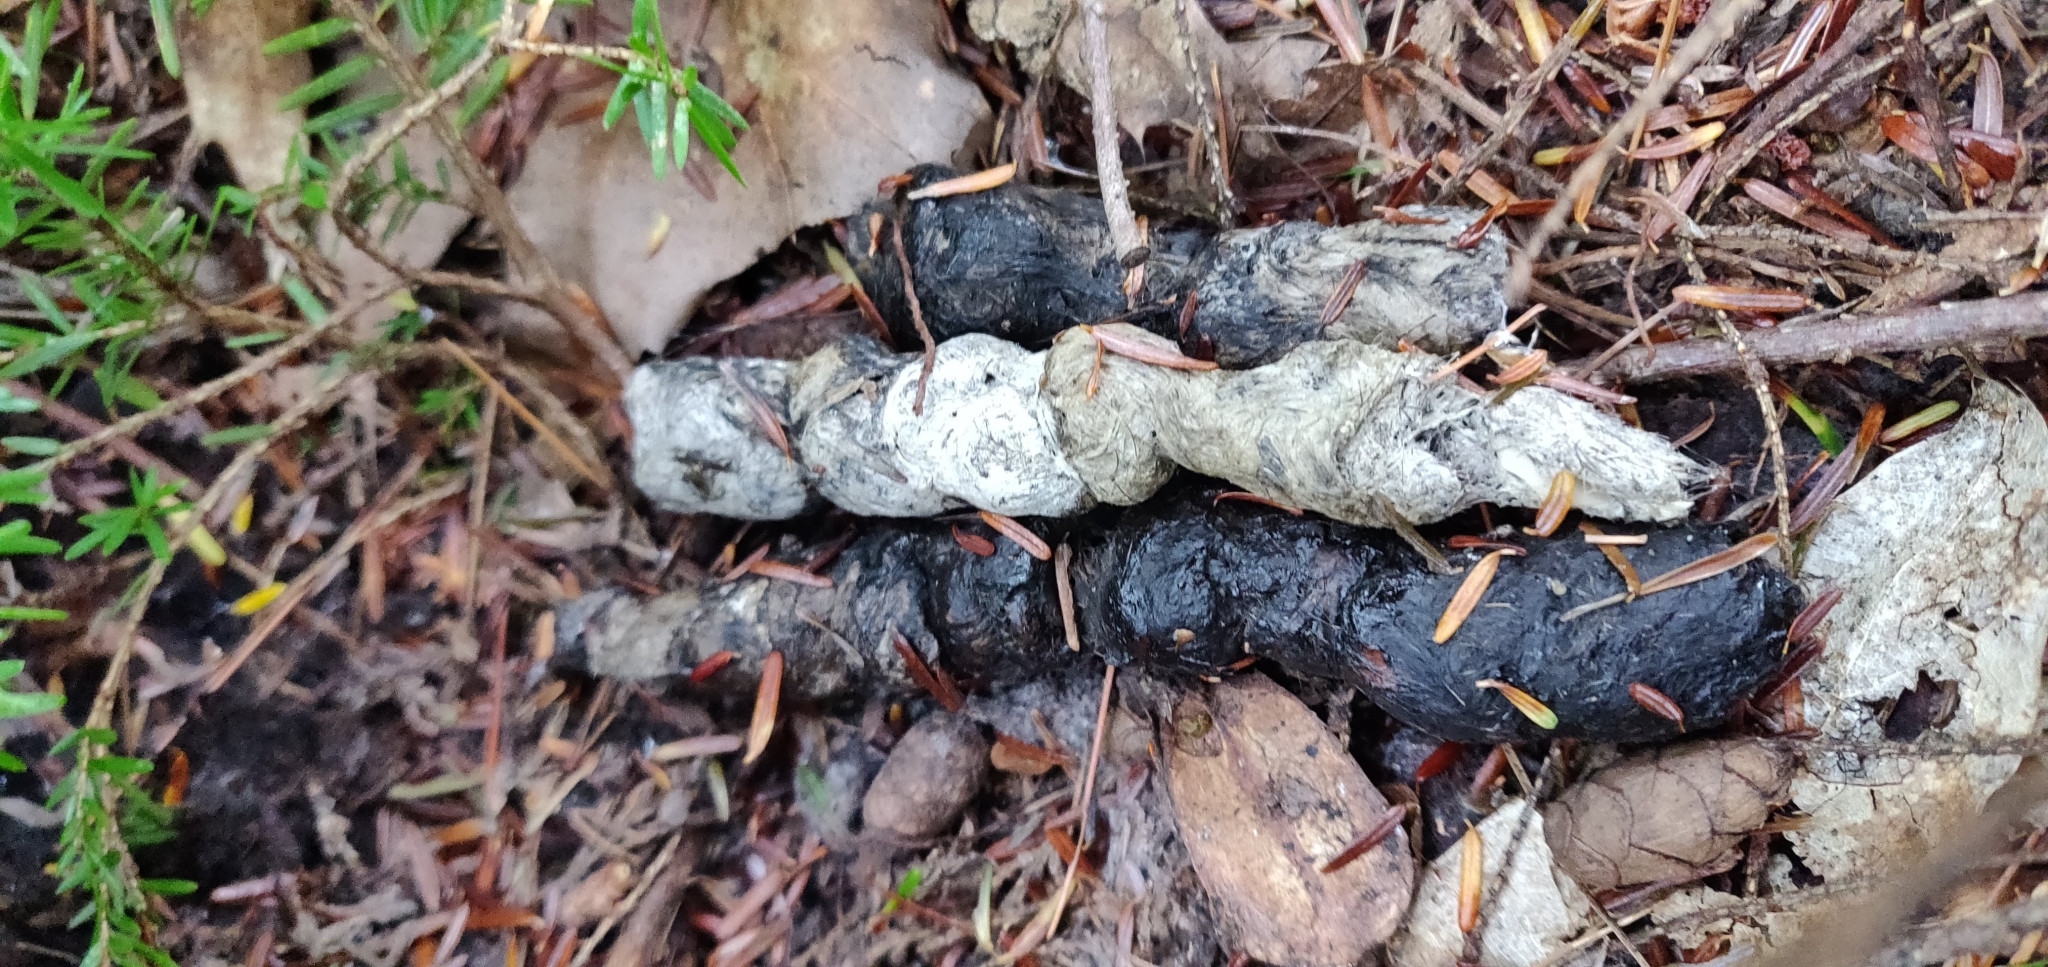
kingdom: Animalia
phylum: Chordata
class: Mammalia
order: Carnivora
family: Canidae
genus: Canis
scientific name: Canis latrans
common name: Coyote
